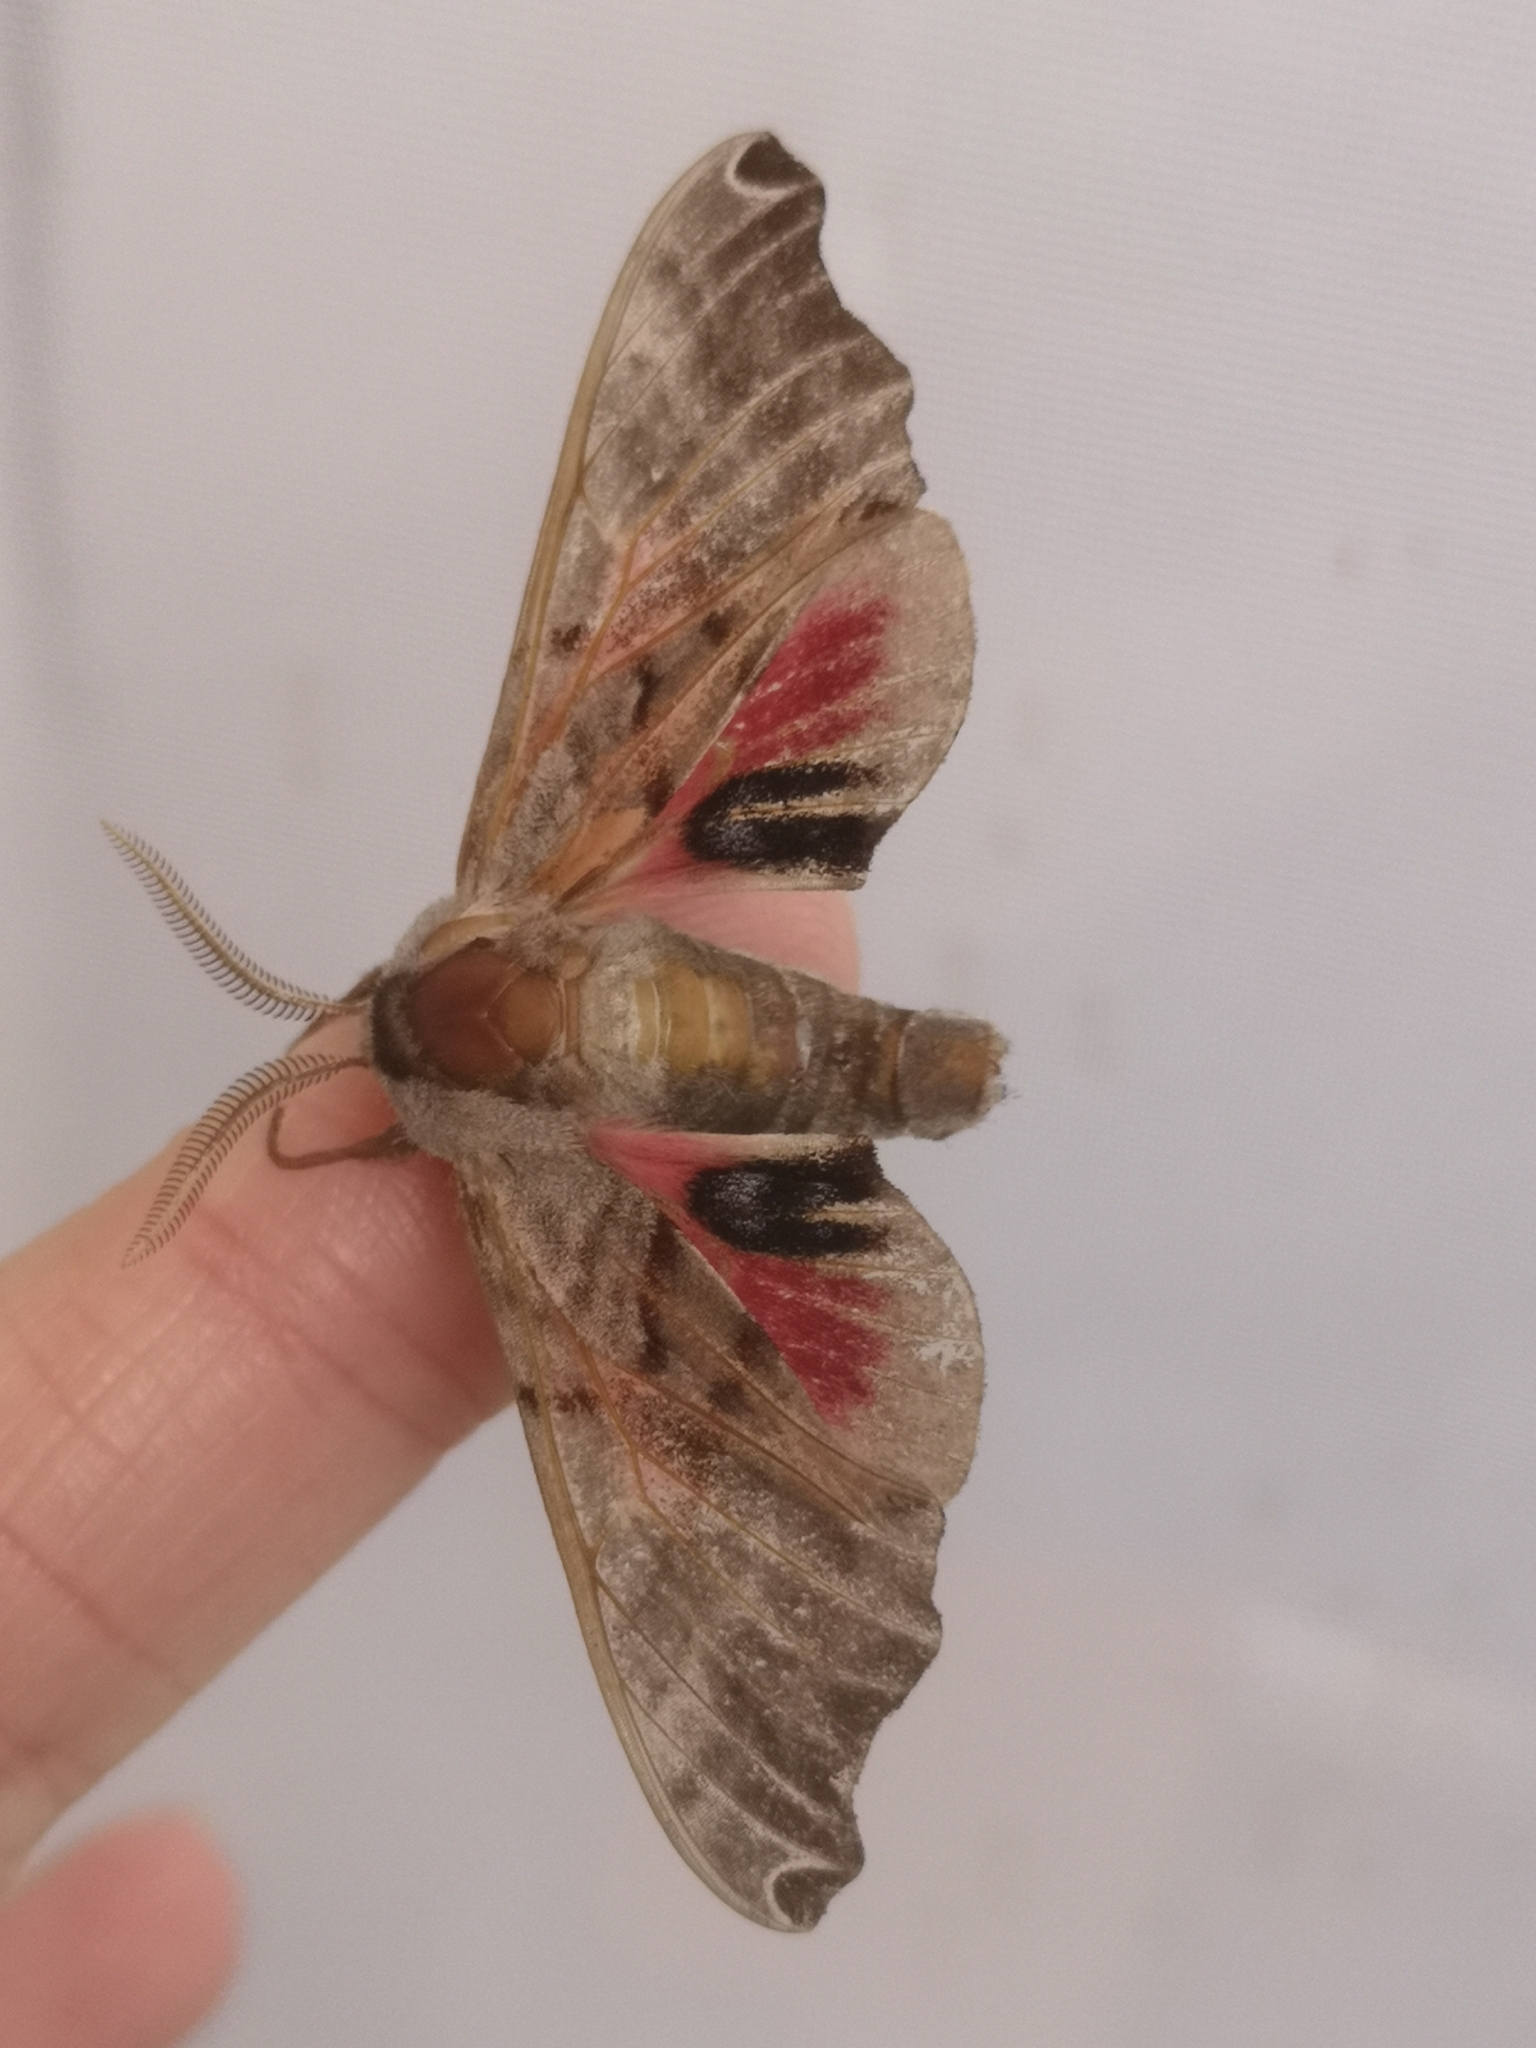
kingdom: Animalia
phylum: Arthropoda
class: Insecta
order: Lepidoptera
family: Sphingidae
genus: Smerinthus
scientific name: Smerinthus jamaicensis
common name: Twin spotted sphinx
